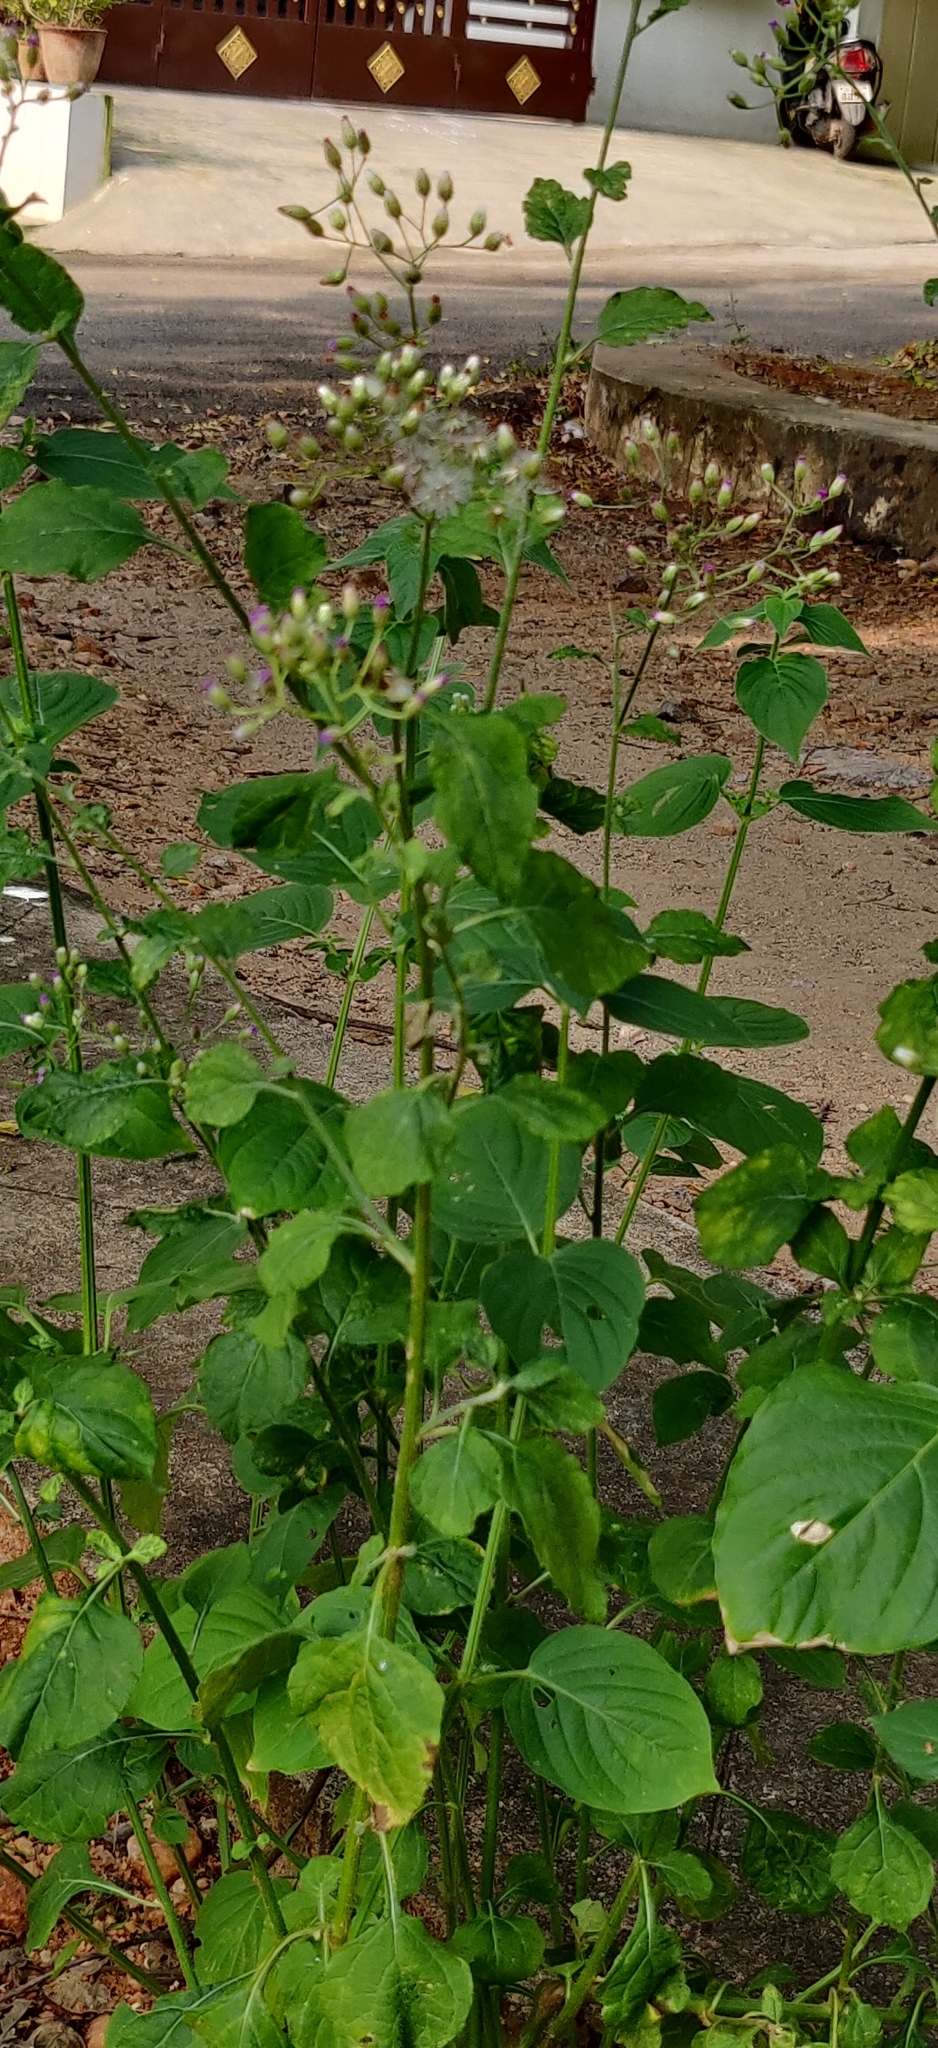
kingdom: Plantae
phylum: Tracheophyta
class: Magnoliopsida
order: Asterales
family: Asteraceae
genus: Cyanthillium
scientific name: Cyanthillium cinereum
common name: Little ironweed
